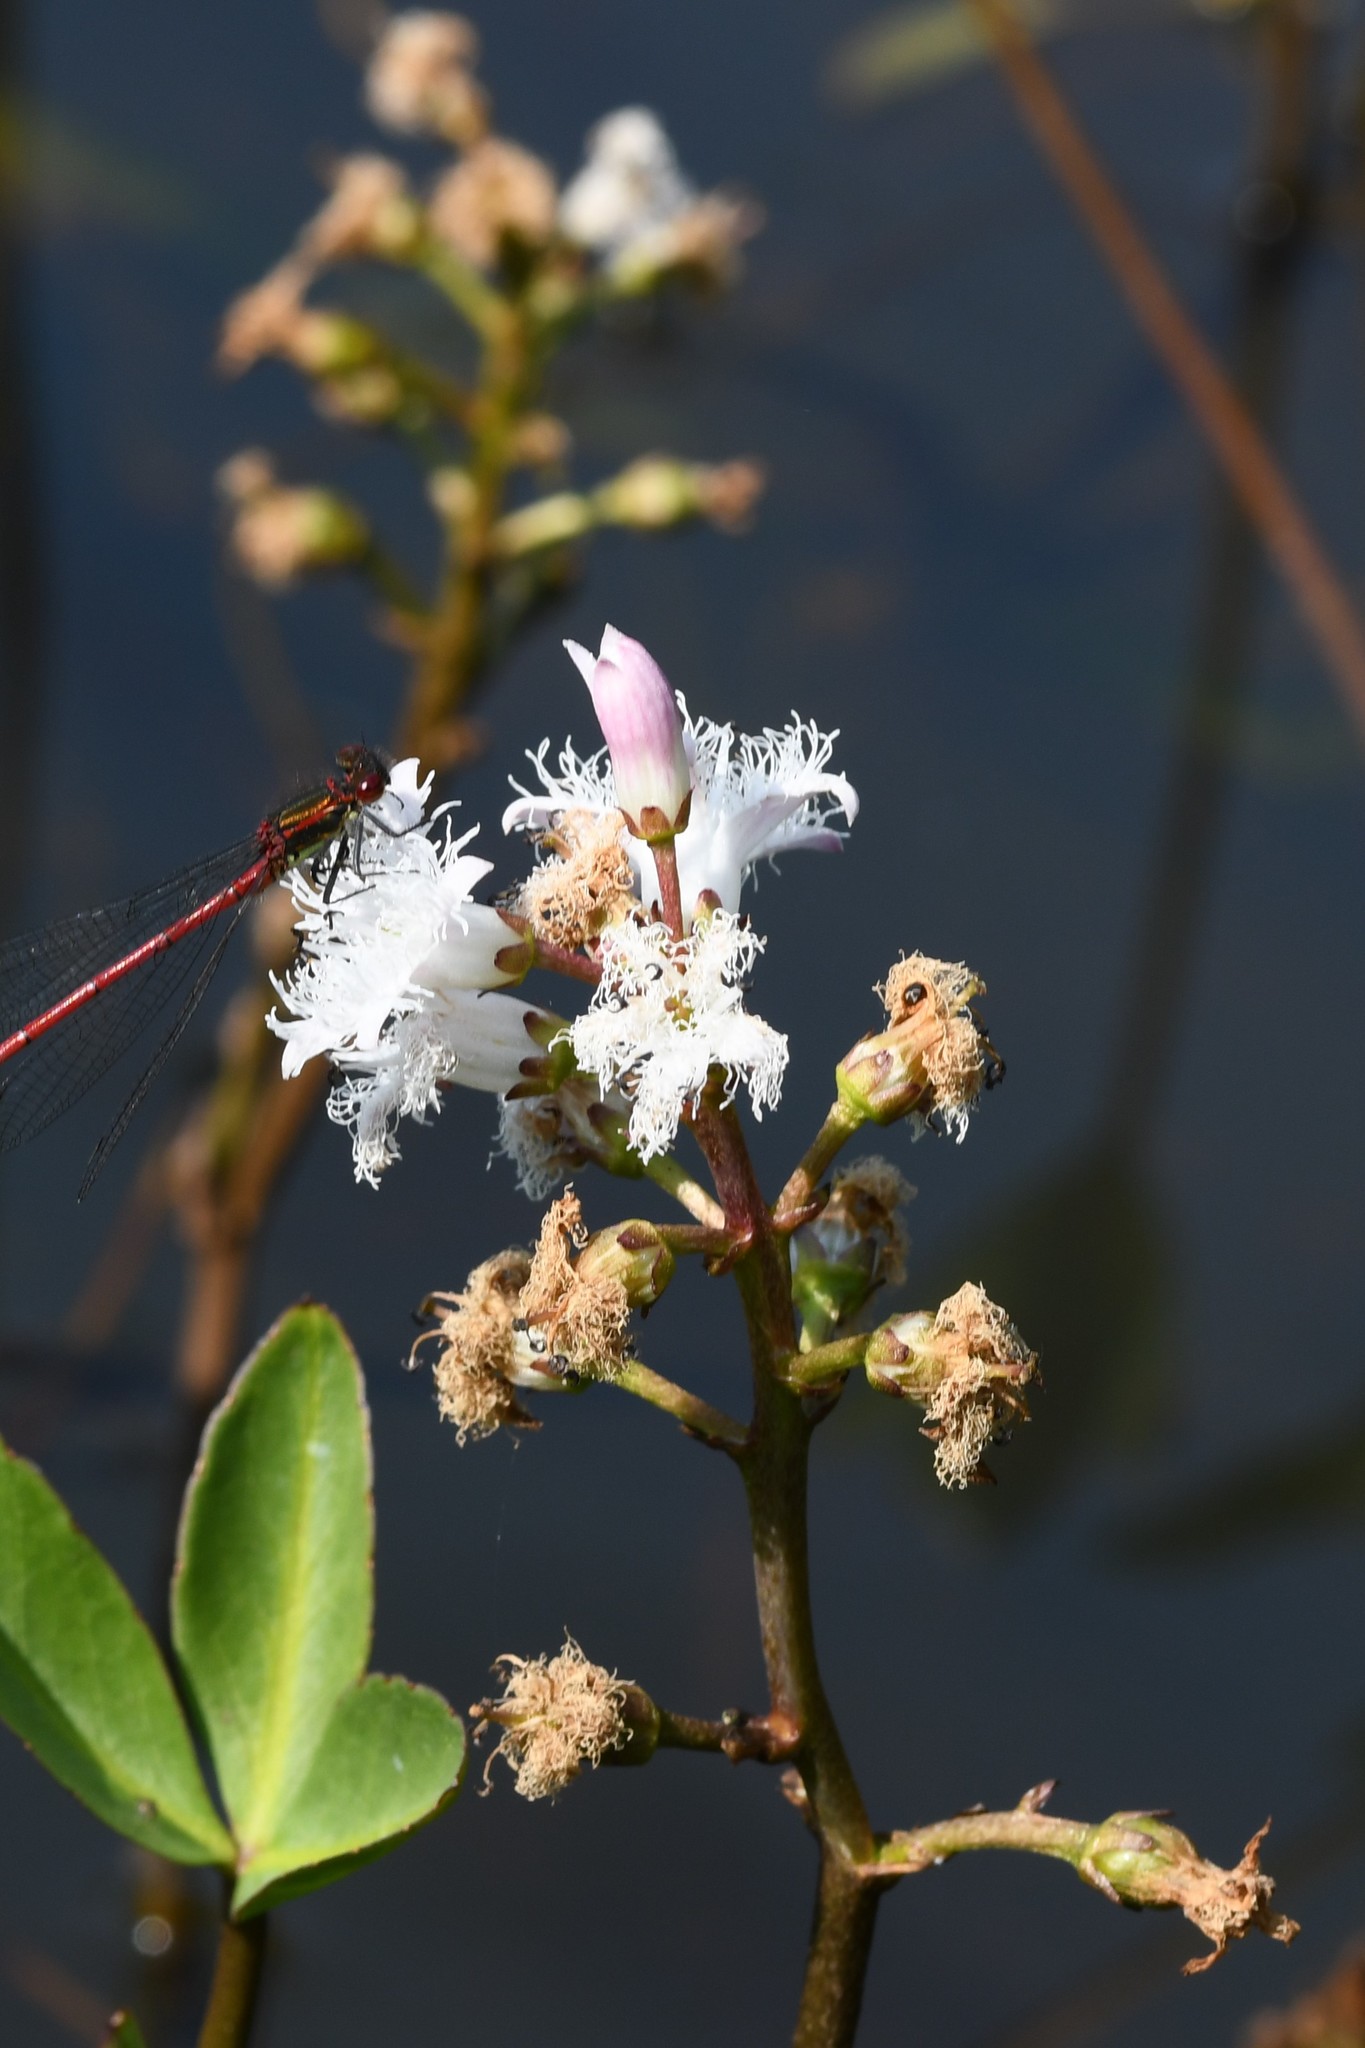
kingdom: Plantae
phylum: Tracheophyta
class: Magnoliopsida
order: Asterales
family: Menyanthaceae
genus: Menyanthes
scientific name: Menyanthes trifoliata
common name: Bogbean
